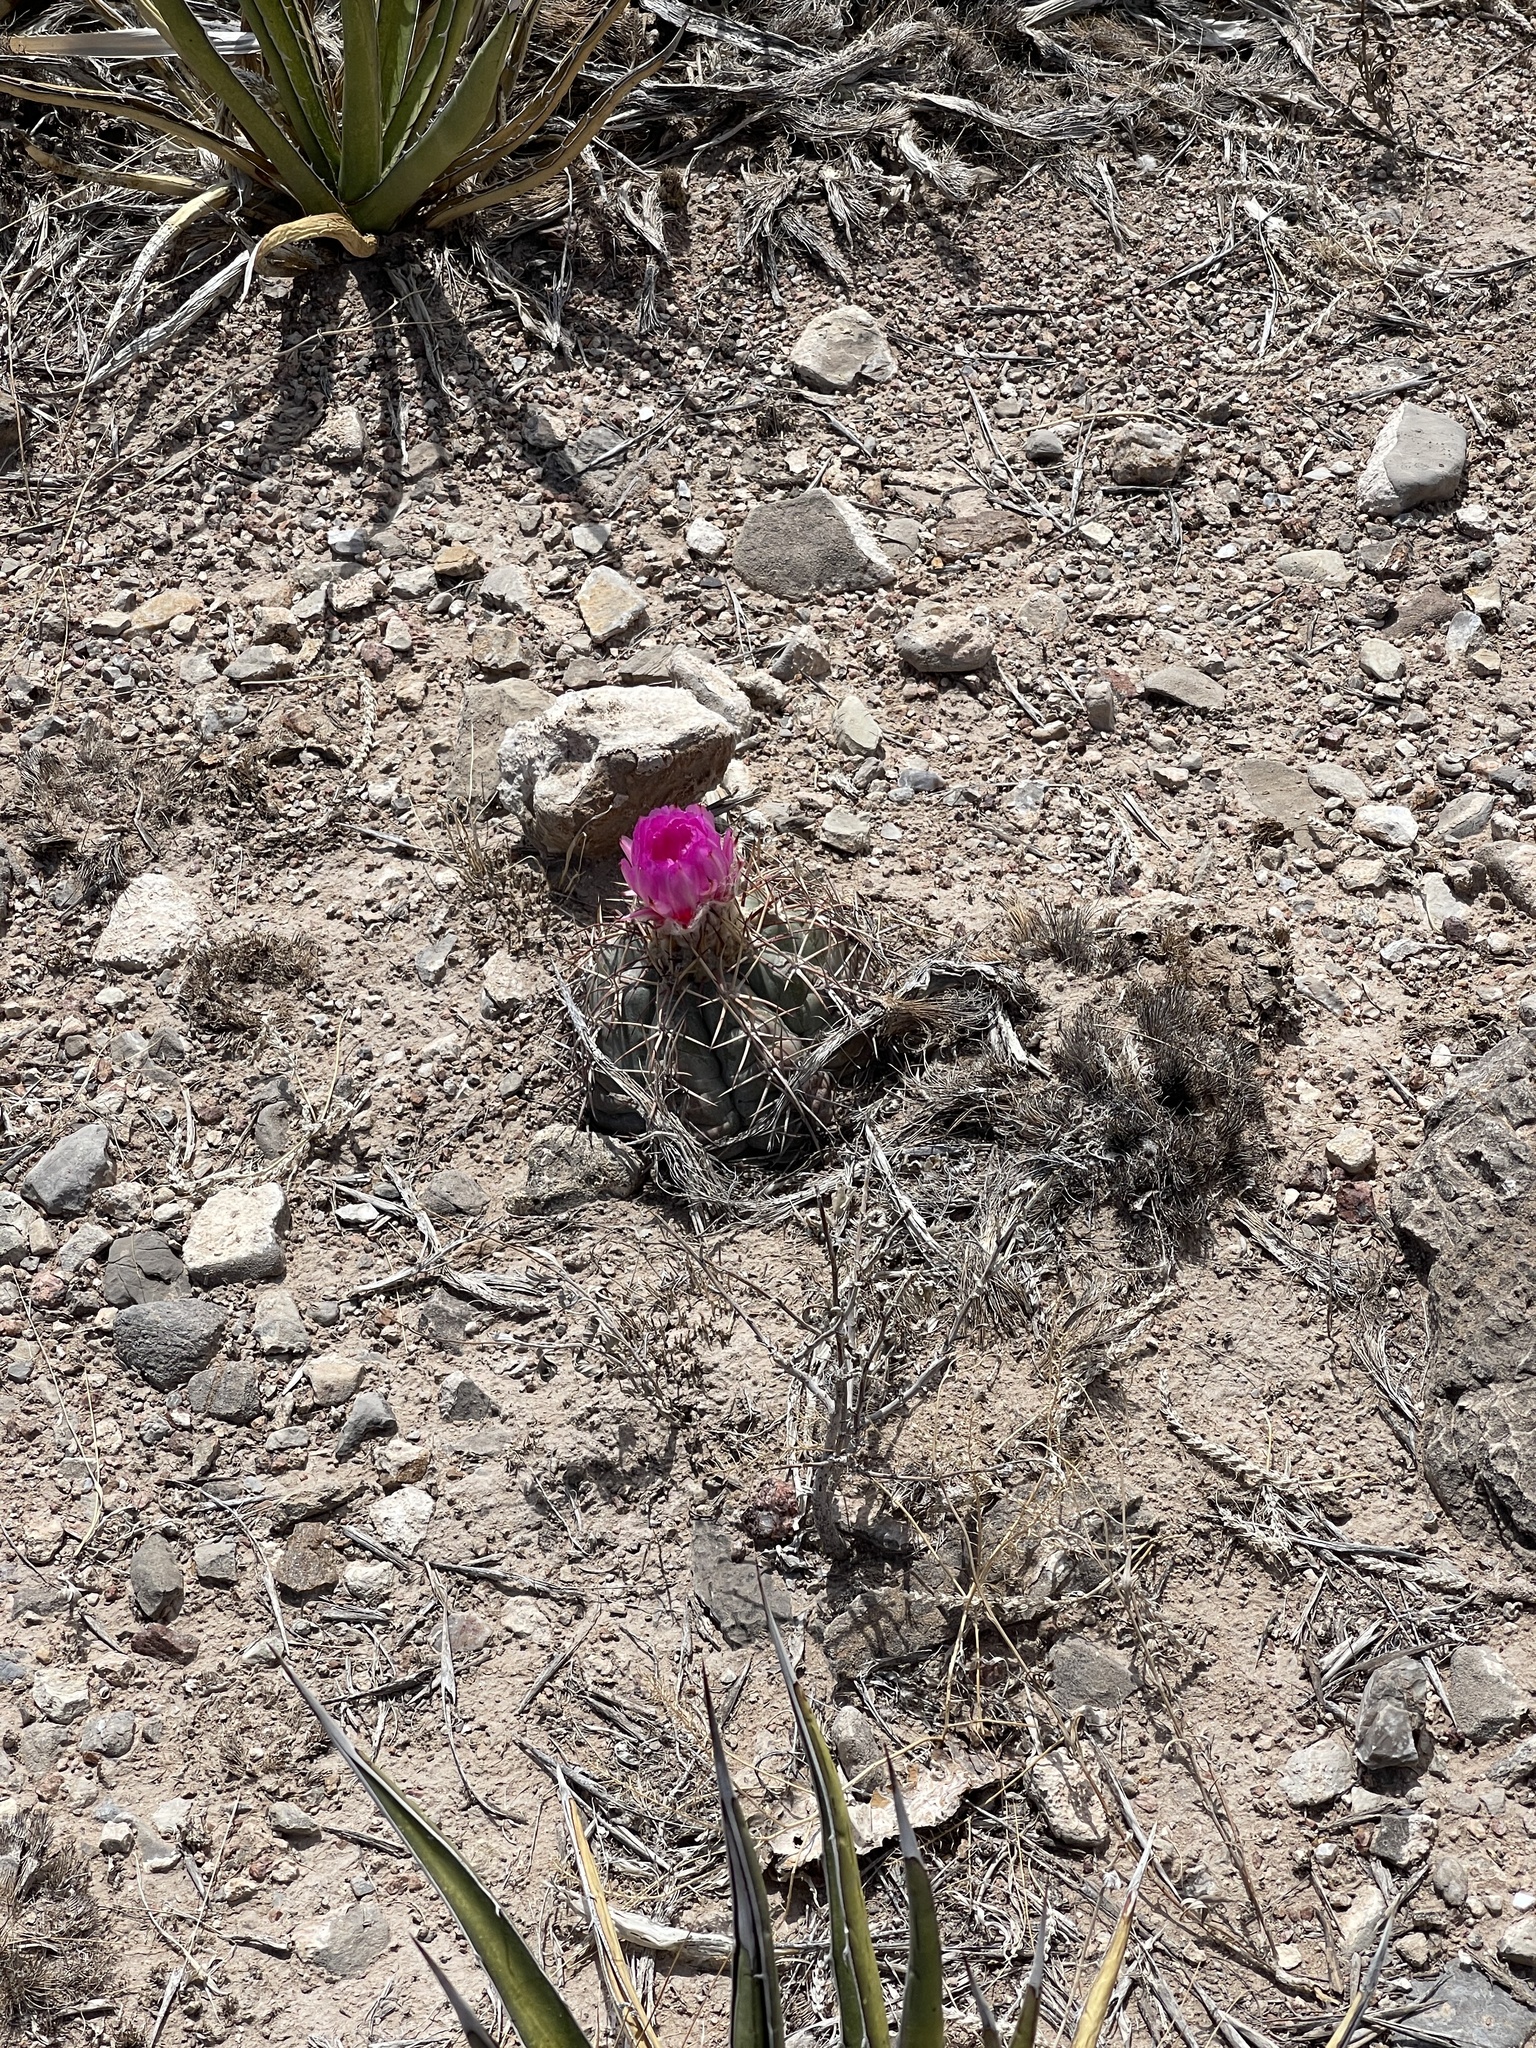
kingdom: Plantae
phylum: Tracheophyta
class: Magnoliopsida
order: Caryophyllales
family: Cactaceae
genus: Echinocactus
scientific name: Echinocactus horizonthalonius
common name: Devilshead
